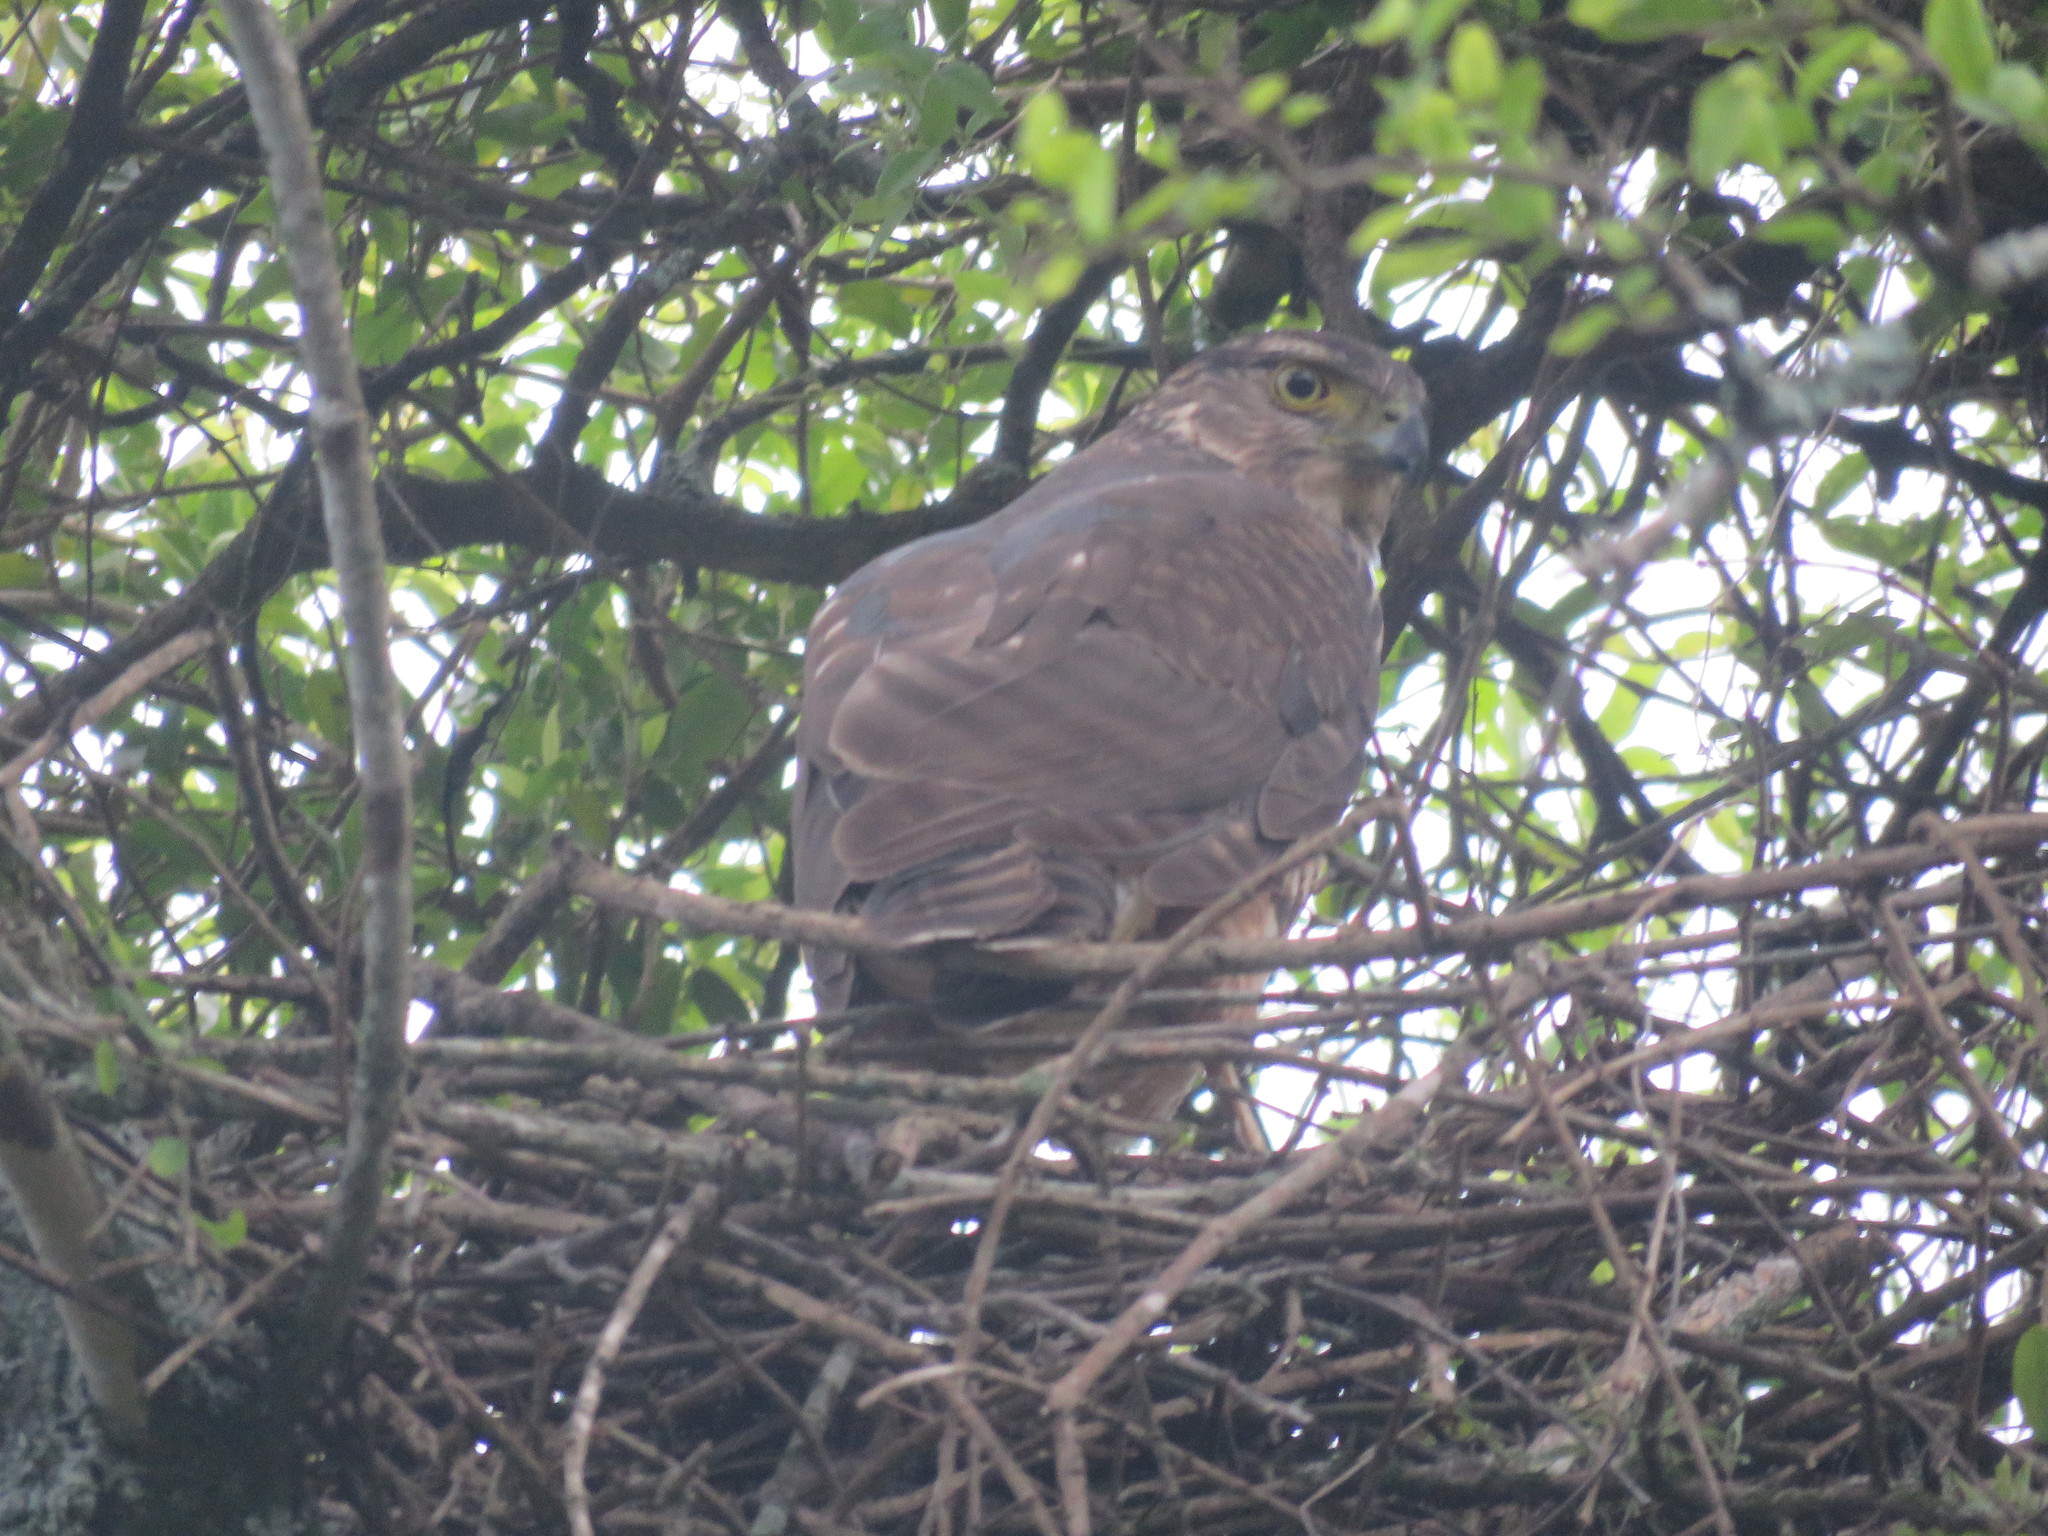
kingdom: Animalia
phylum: Chordata
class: Aves
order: Accipitriformes
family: Accipitridae
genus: Accipiter
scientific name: Accipiter bicolor
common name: Bicolored hawk
